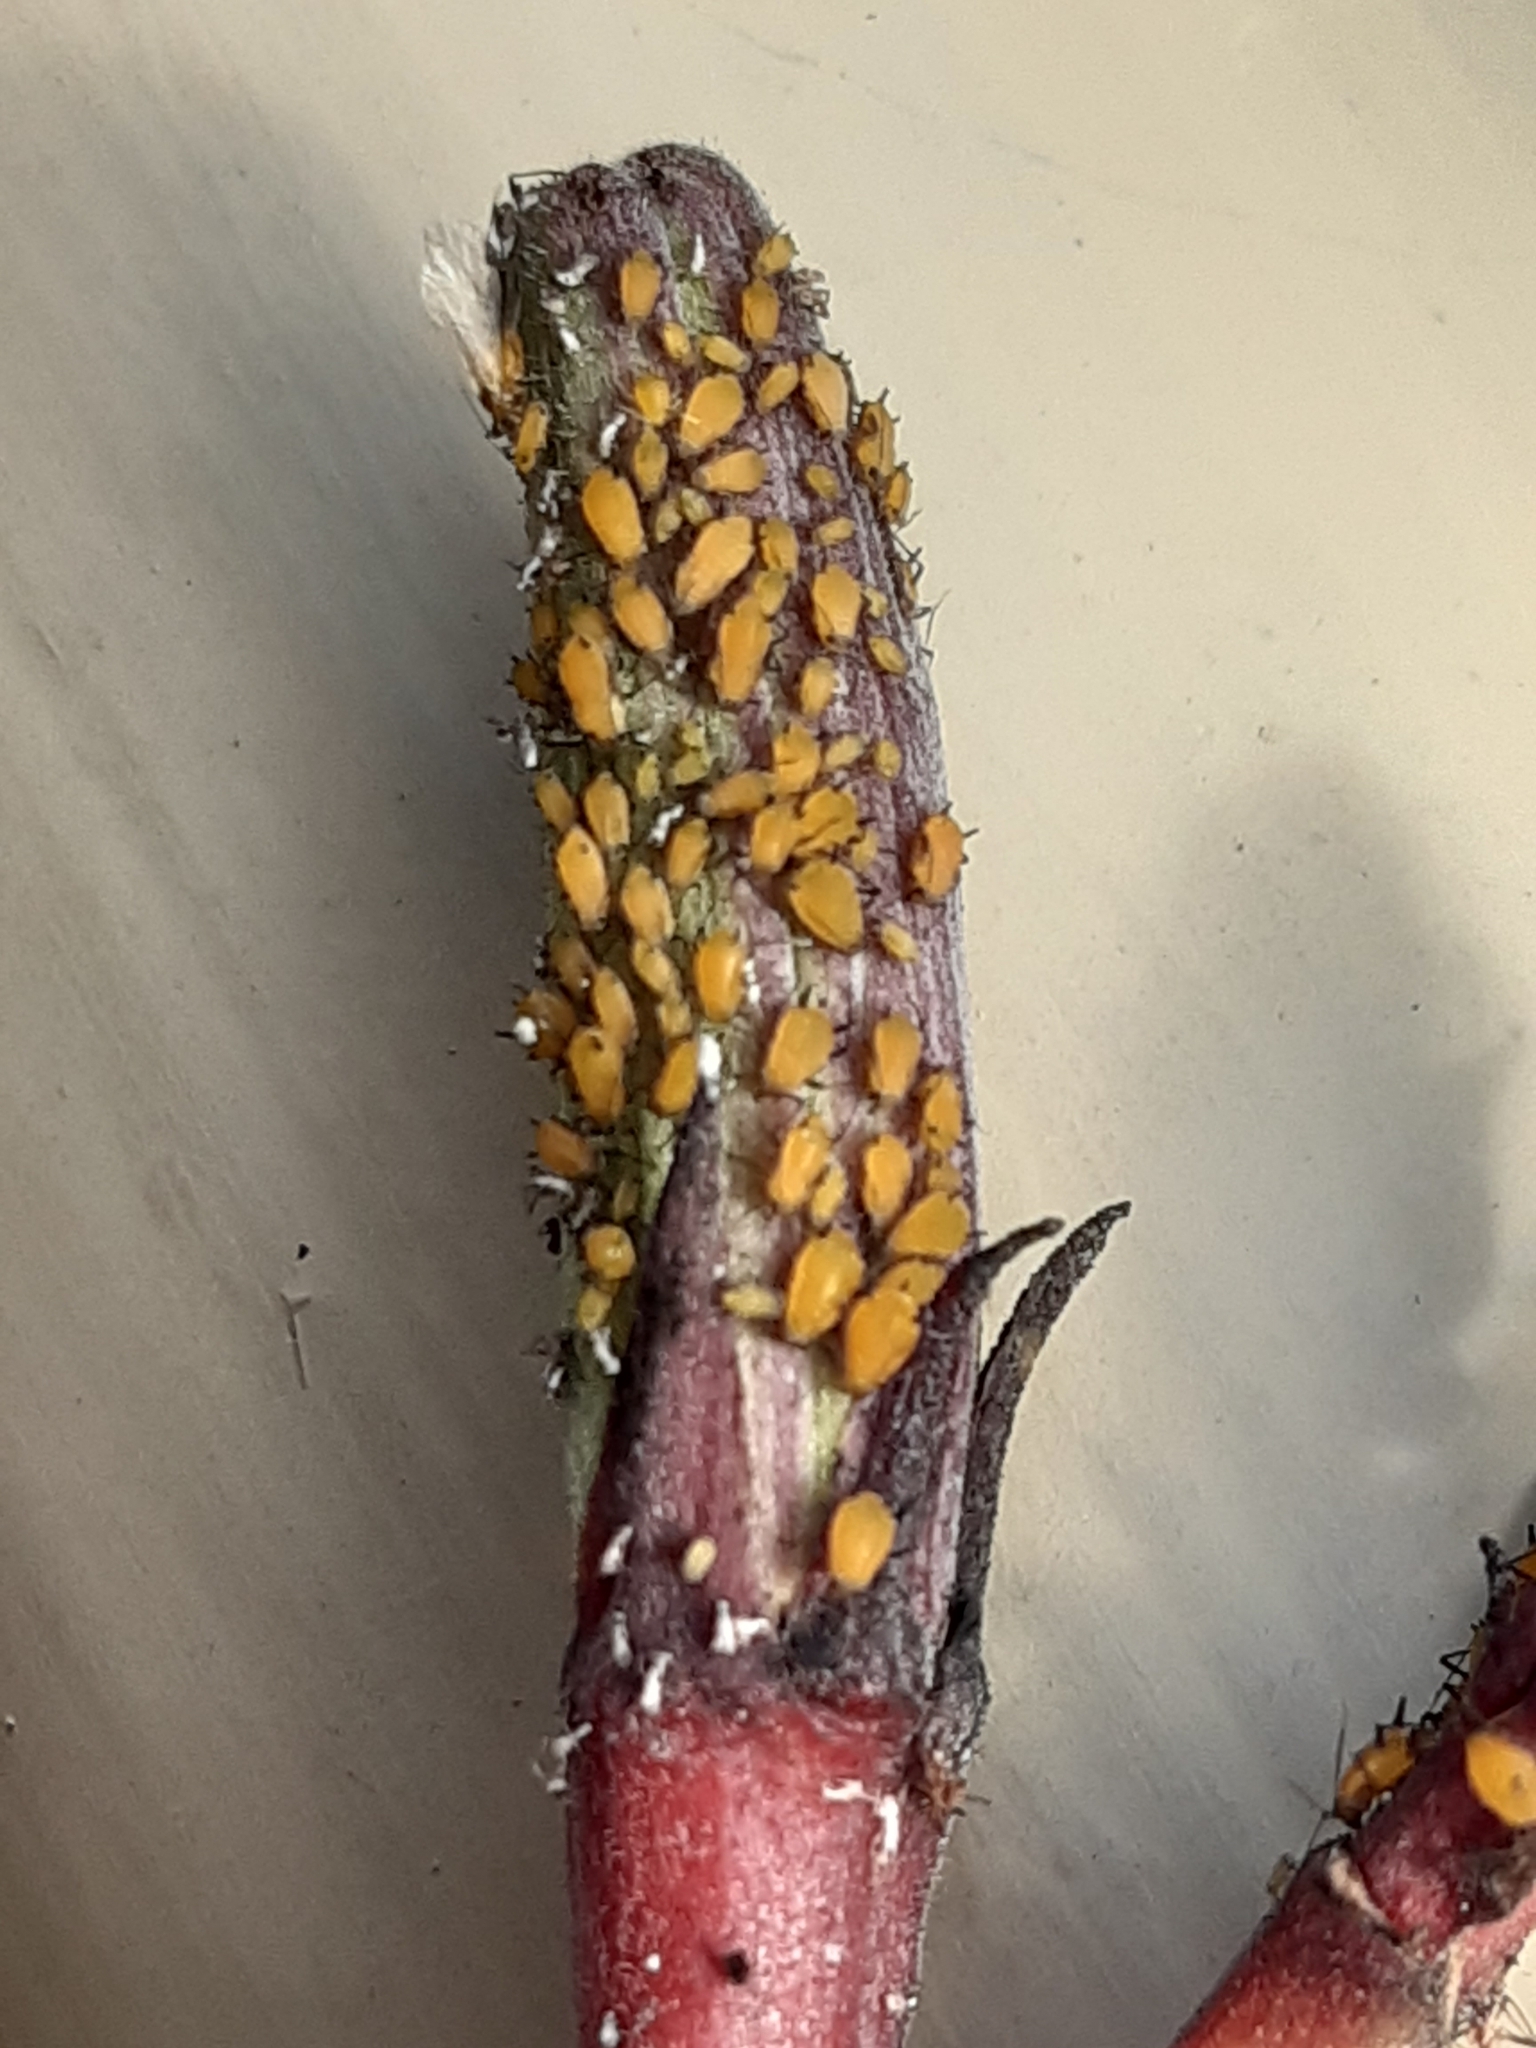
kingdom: Animalia
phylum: Arthropoda
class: Insecta
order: Hemiptera
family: Aphididae
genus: Aphis
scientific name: Aphis nerii
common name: Oleander aphid
